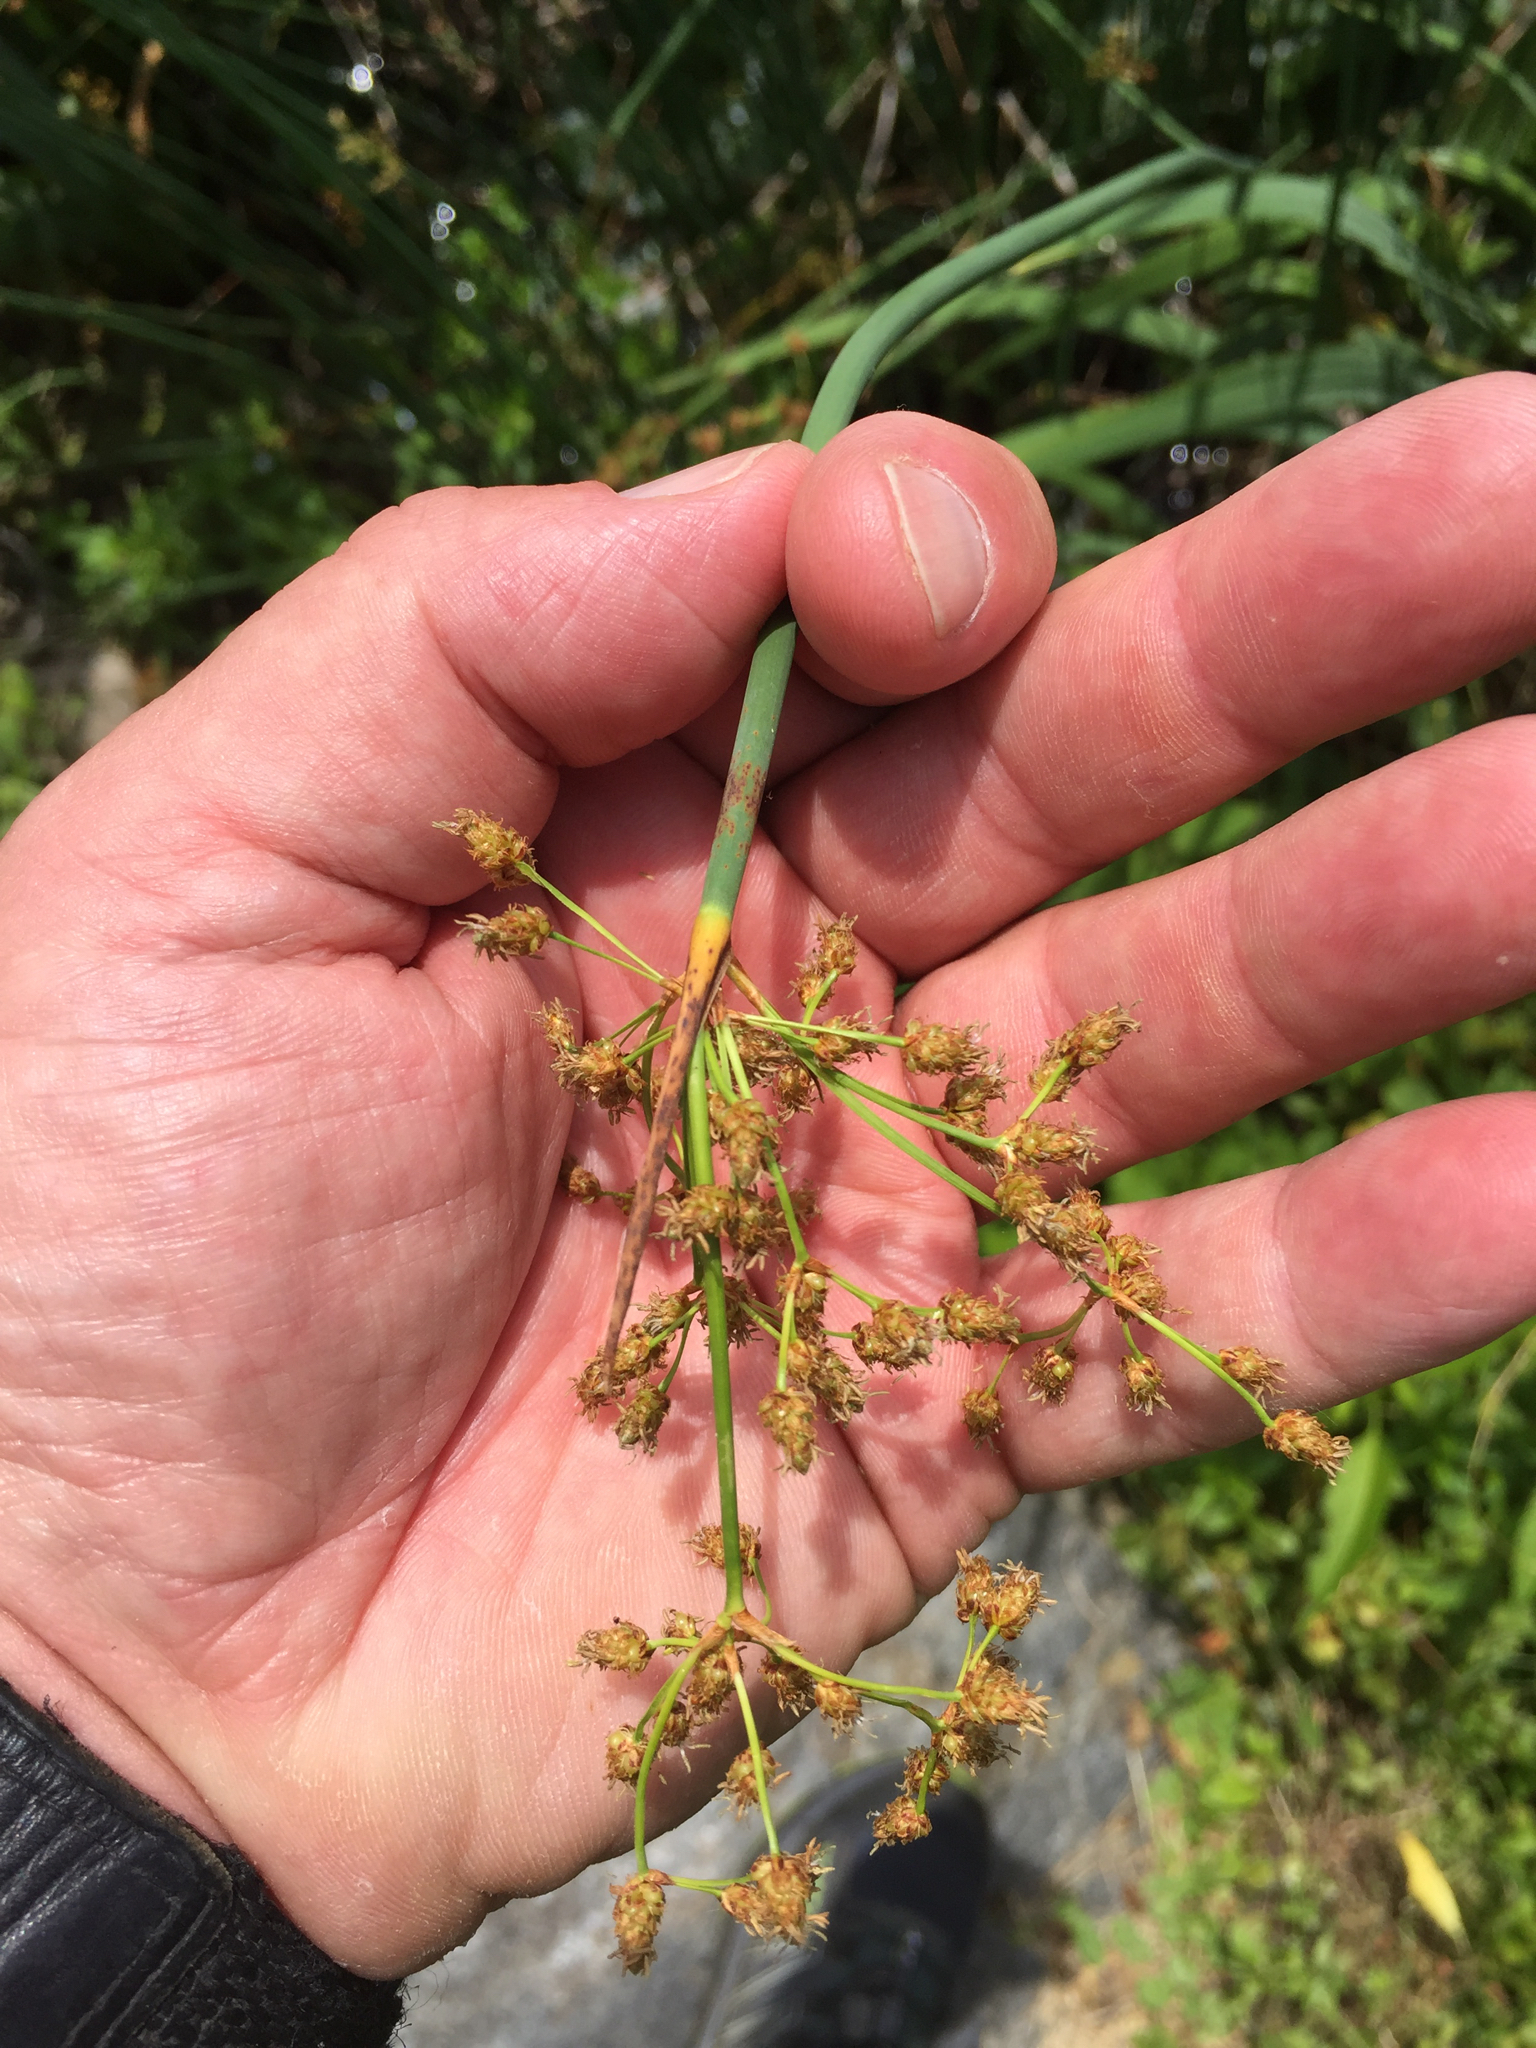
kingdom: Plantae
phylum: Tracheophyta
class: Liliopsida
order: Poales
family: Cyperaceae
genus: Schoenoplectus
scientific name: Schoenoplectus acutus
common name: Hardstem bulrush
